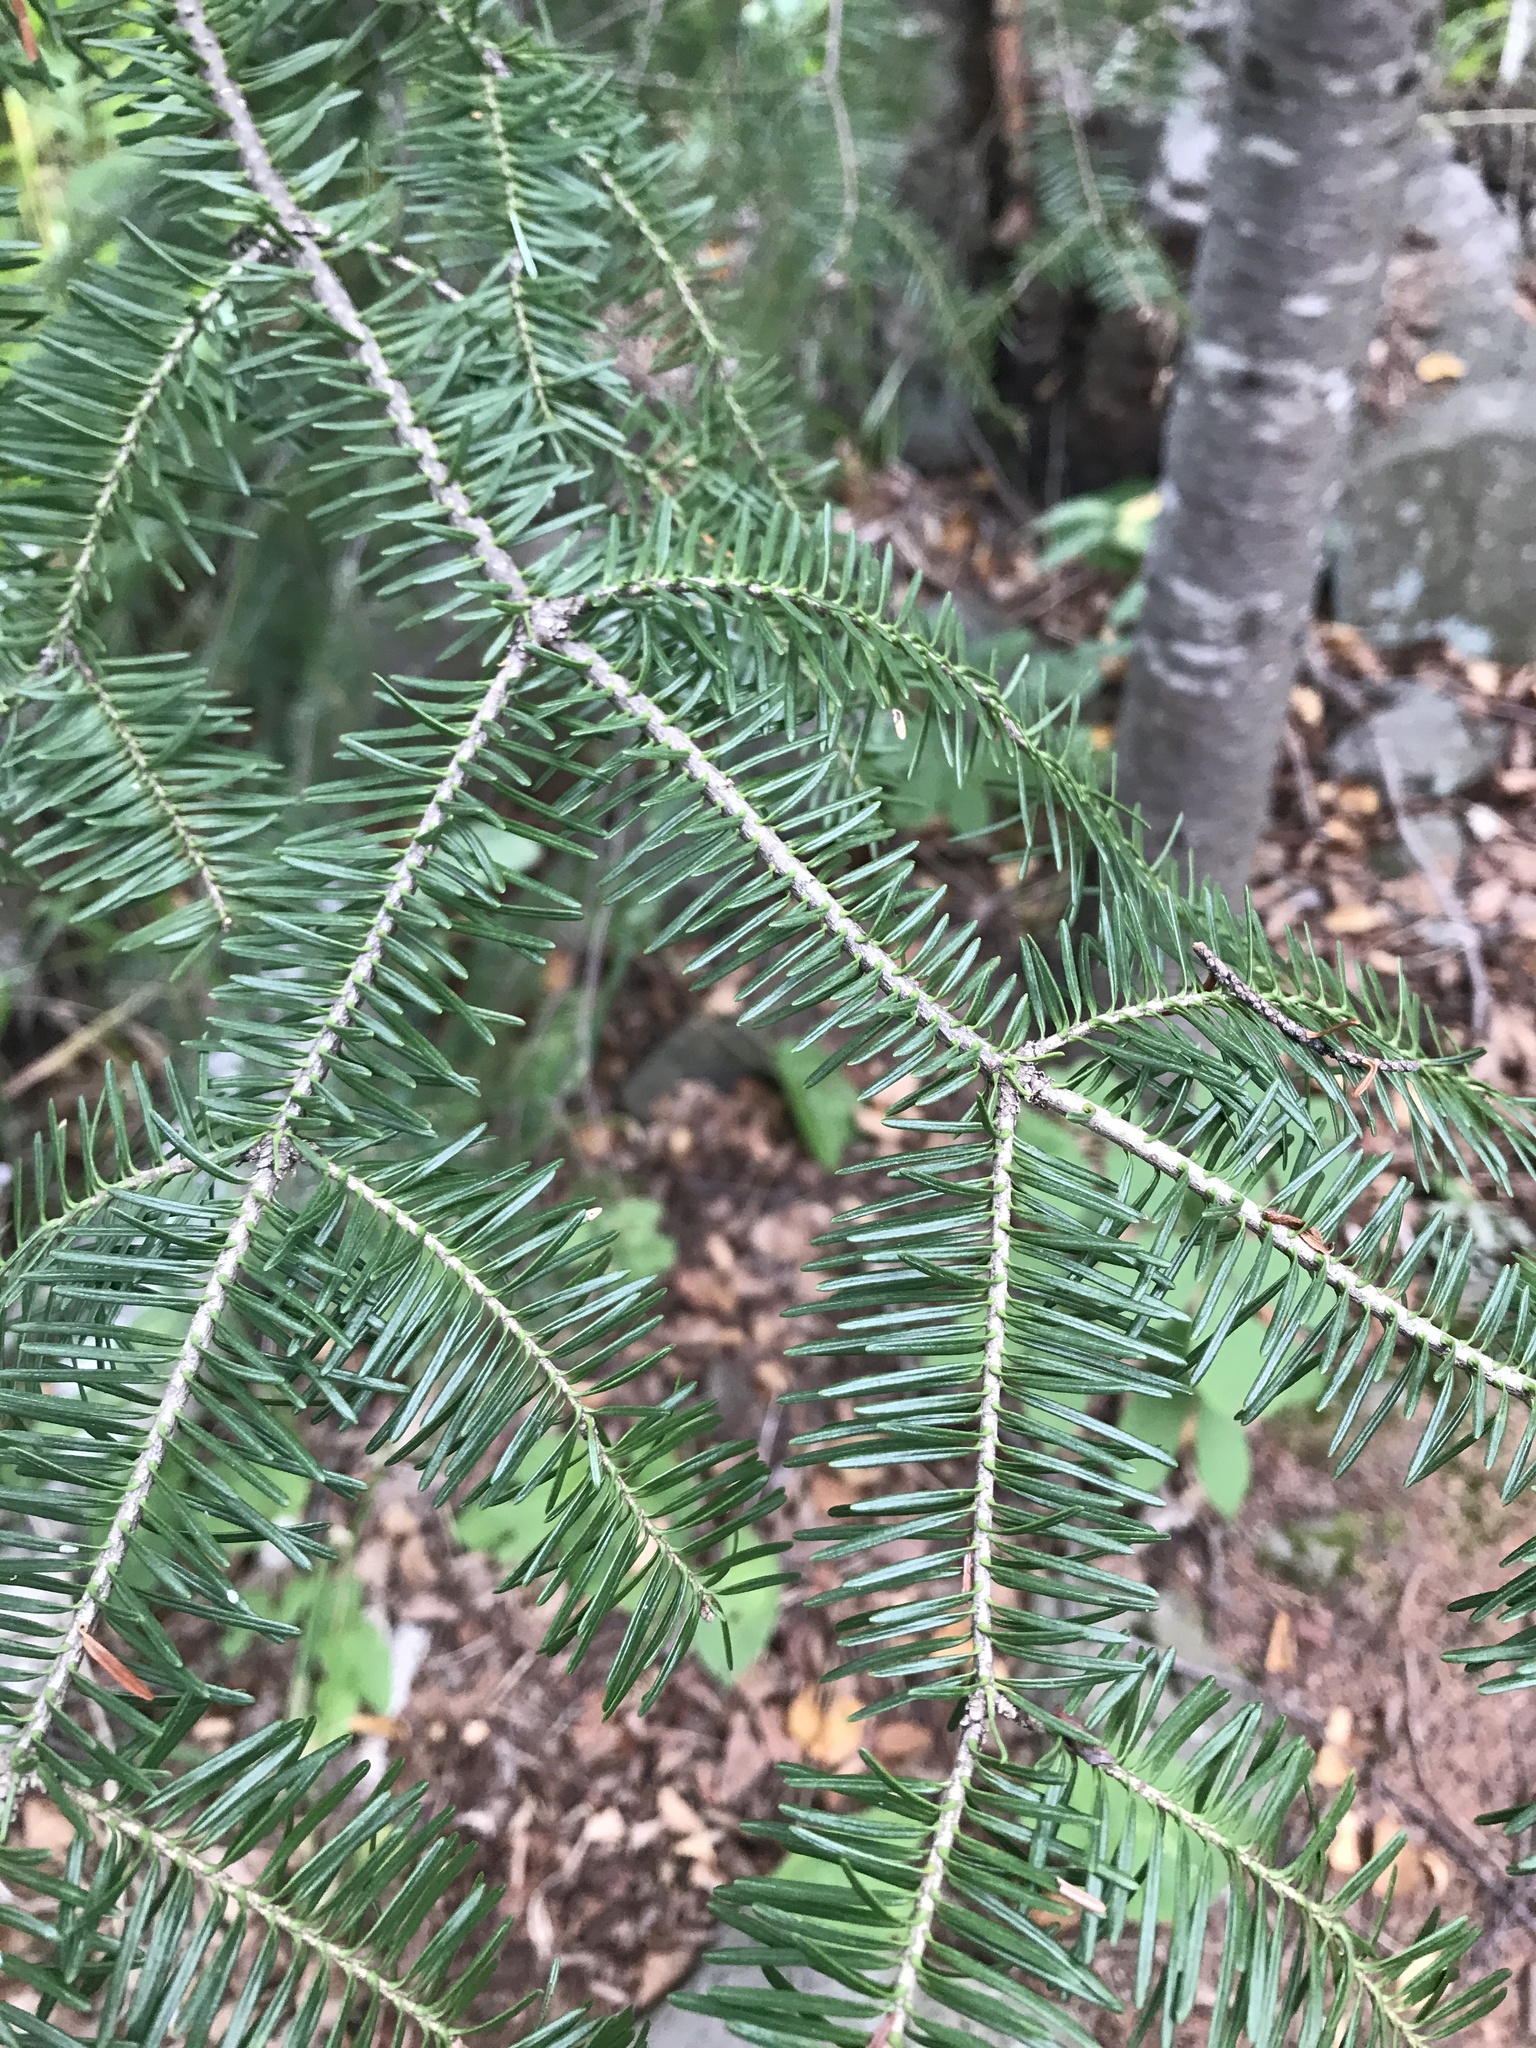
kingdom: Plantae
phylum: Tracheophyta
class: Pinopsida
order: Pinales
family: Pinaceae
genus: Abies
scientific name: Abies balsamea
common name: Balsam fir
